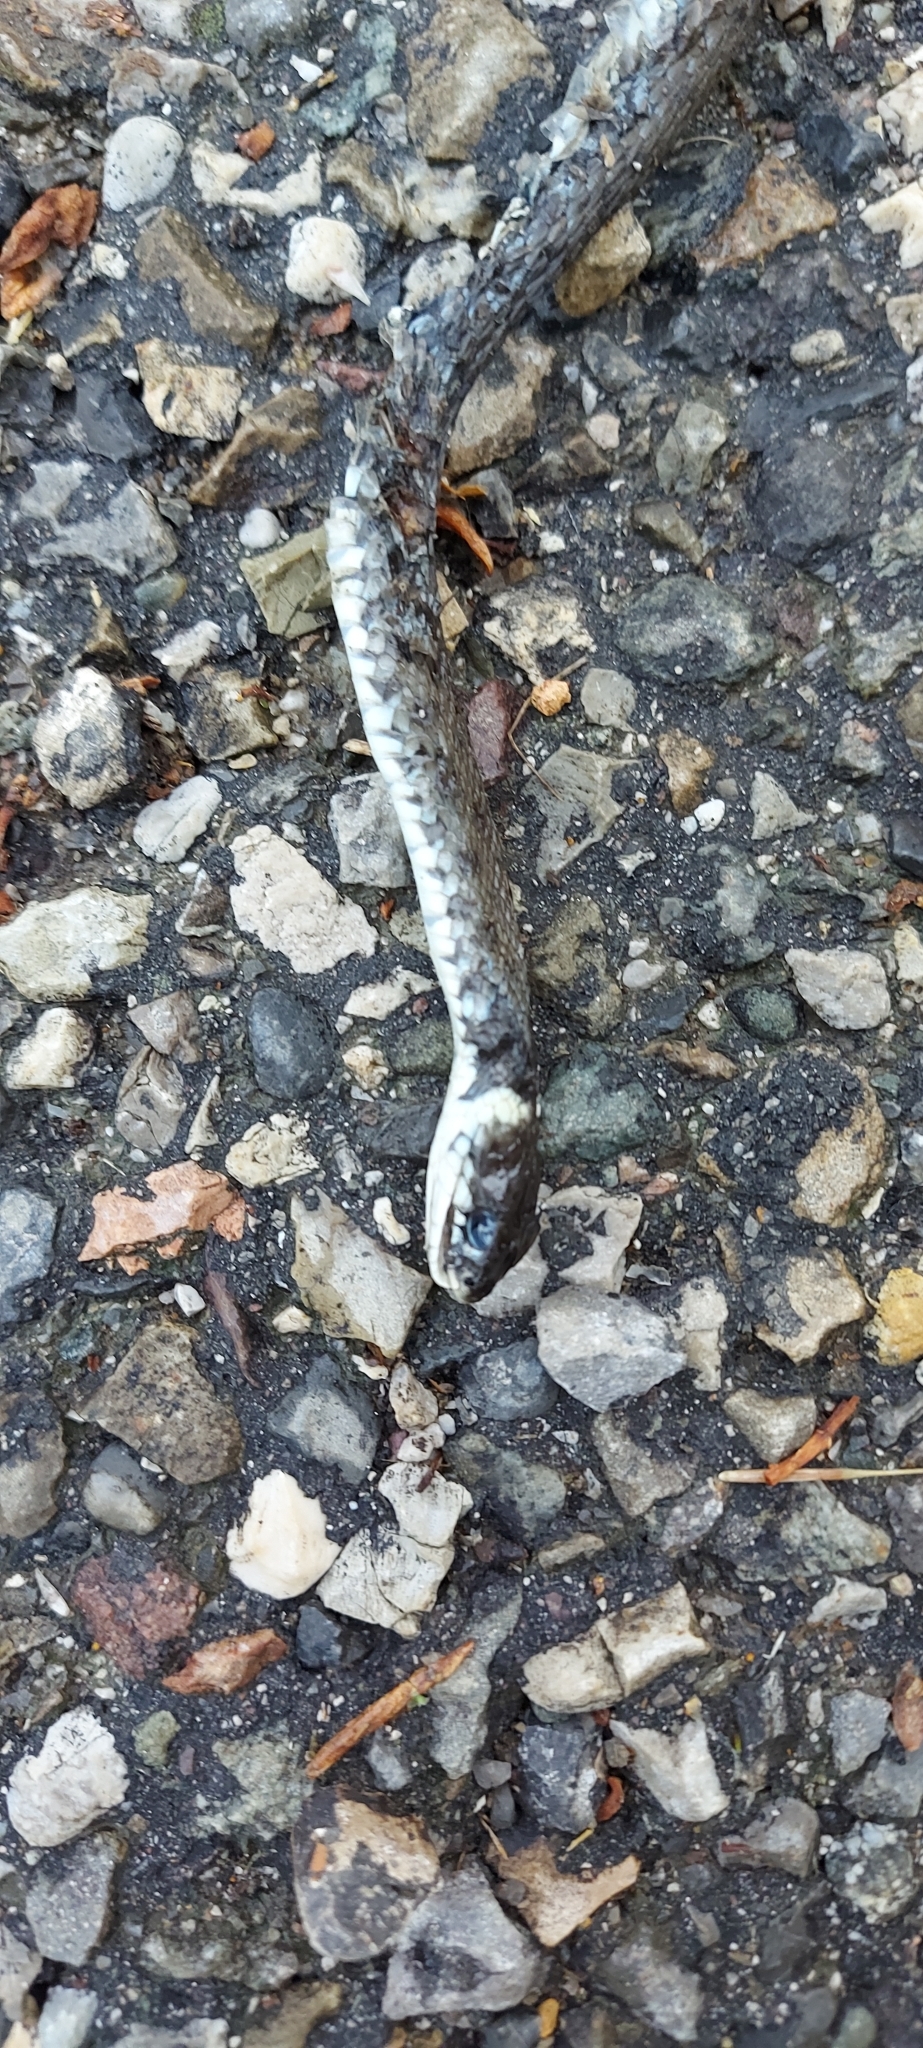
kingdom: Animalia
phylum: Chordata
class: Squamata
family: Colubridae
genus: Natrix
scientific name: Natrix helvetica
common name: Banded grass snake
